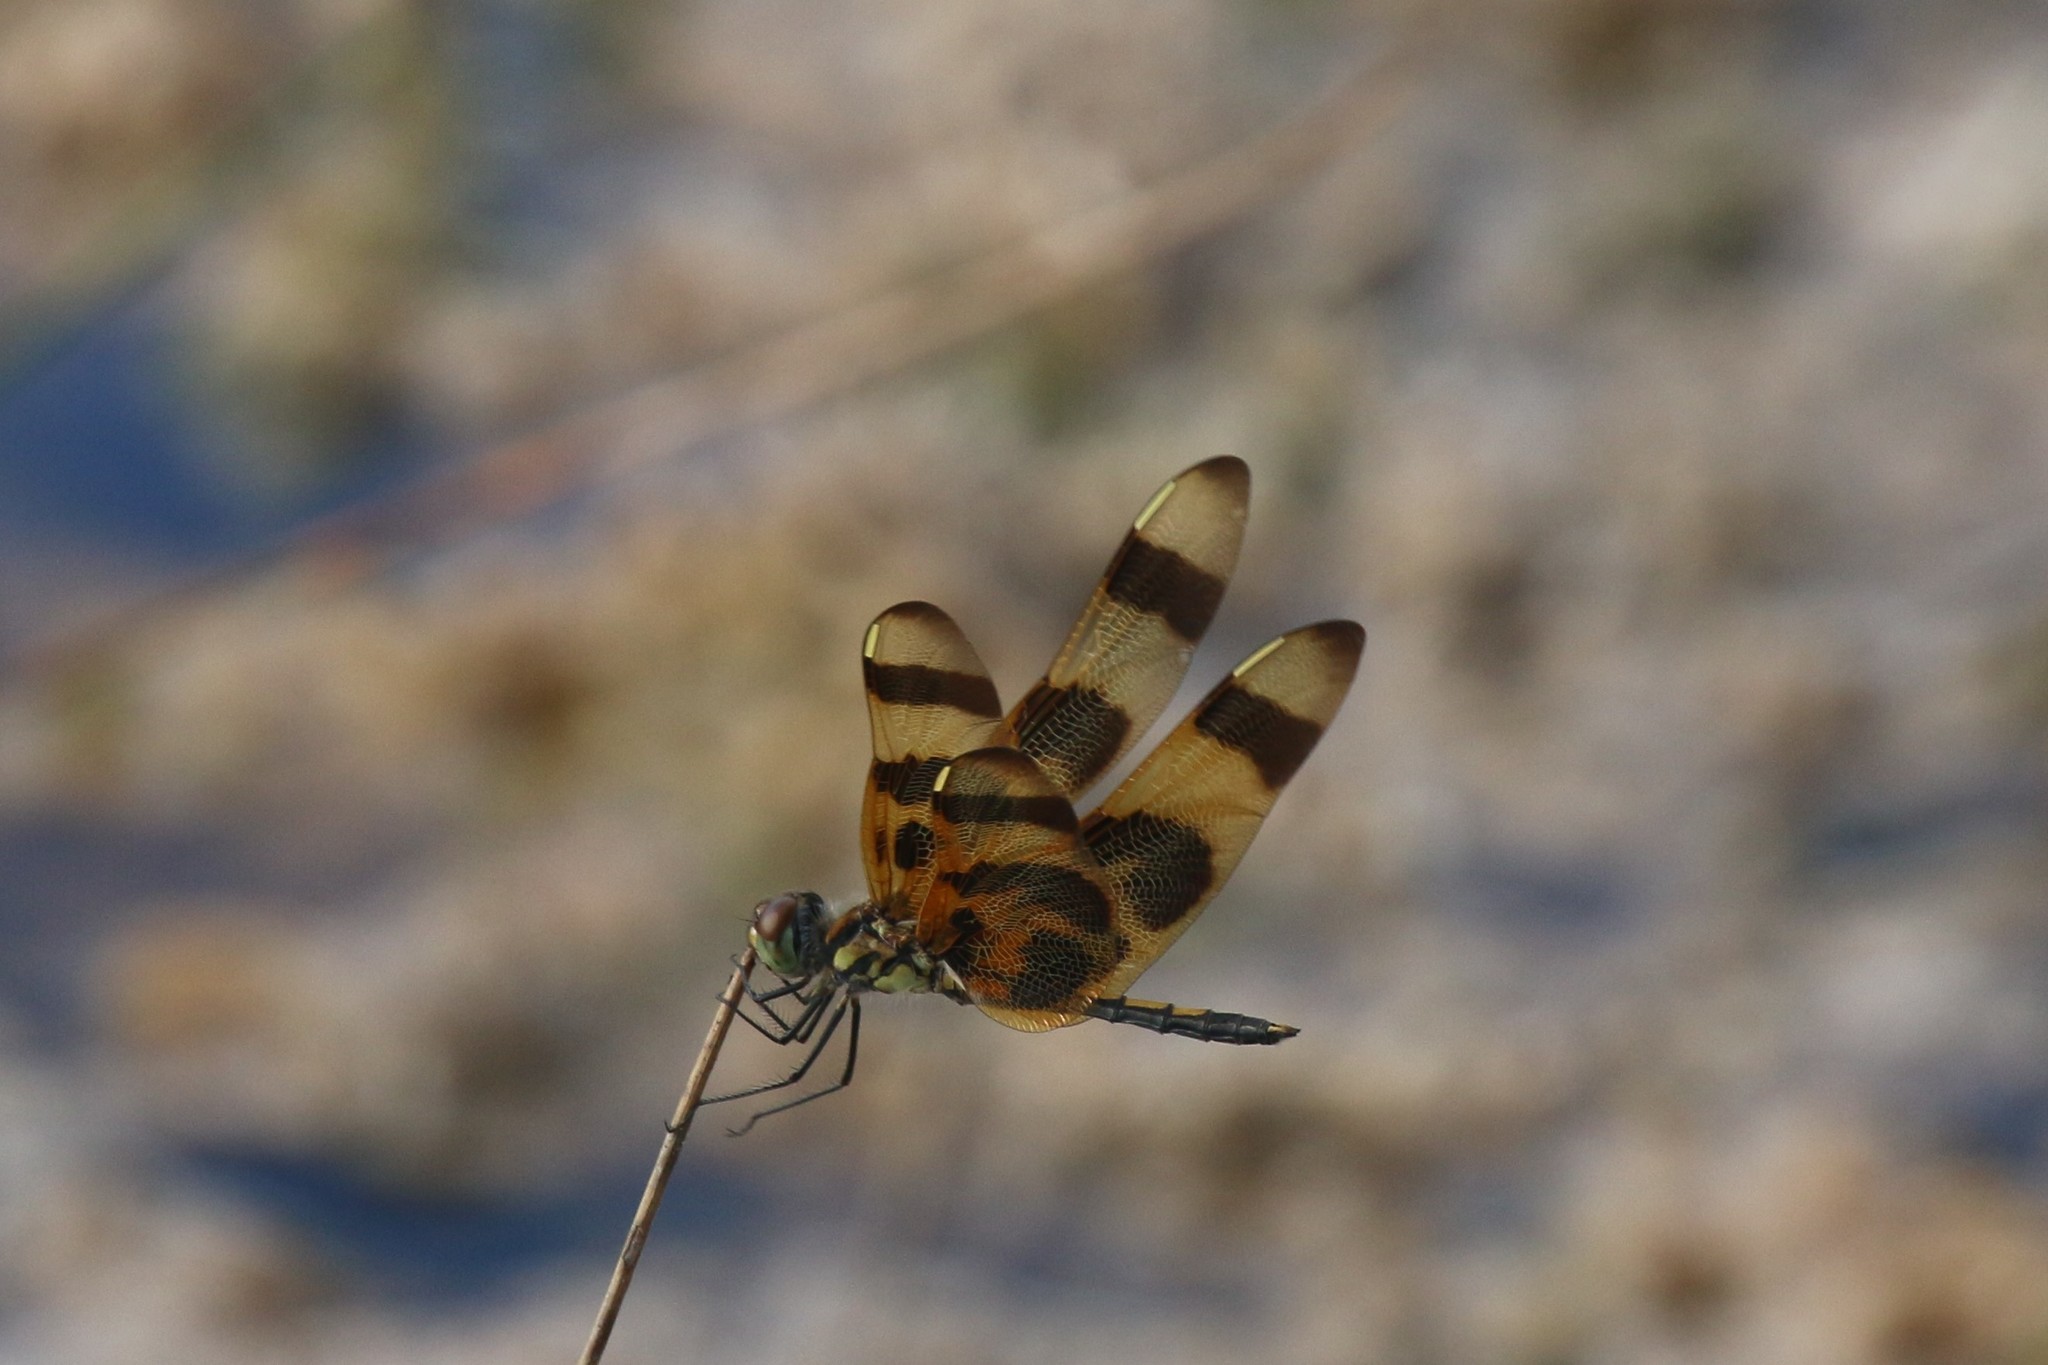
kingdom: Animalia
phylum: Arthropoda
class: Insecta
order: Odonata
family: Libellulidae
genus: Celithemis
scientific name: Celithemis eponina
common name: Halloween pennant
